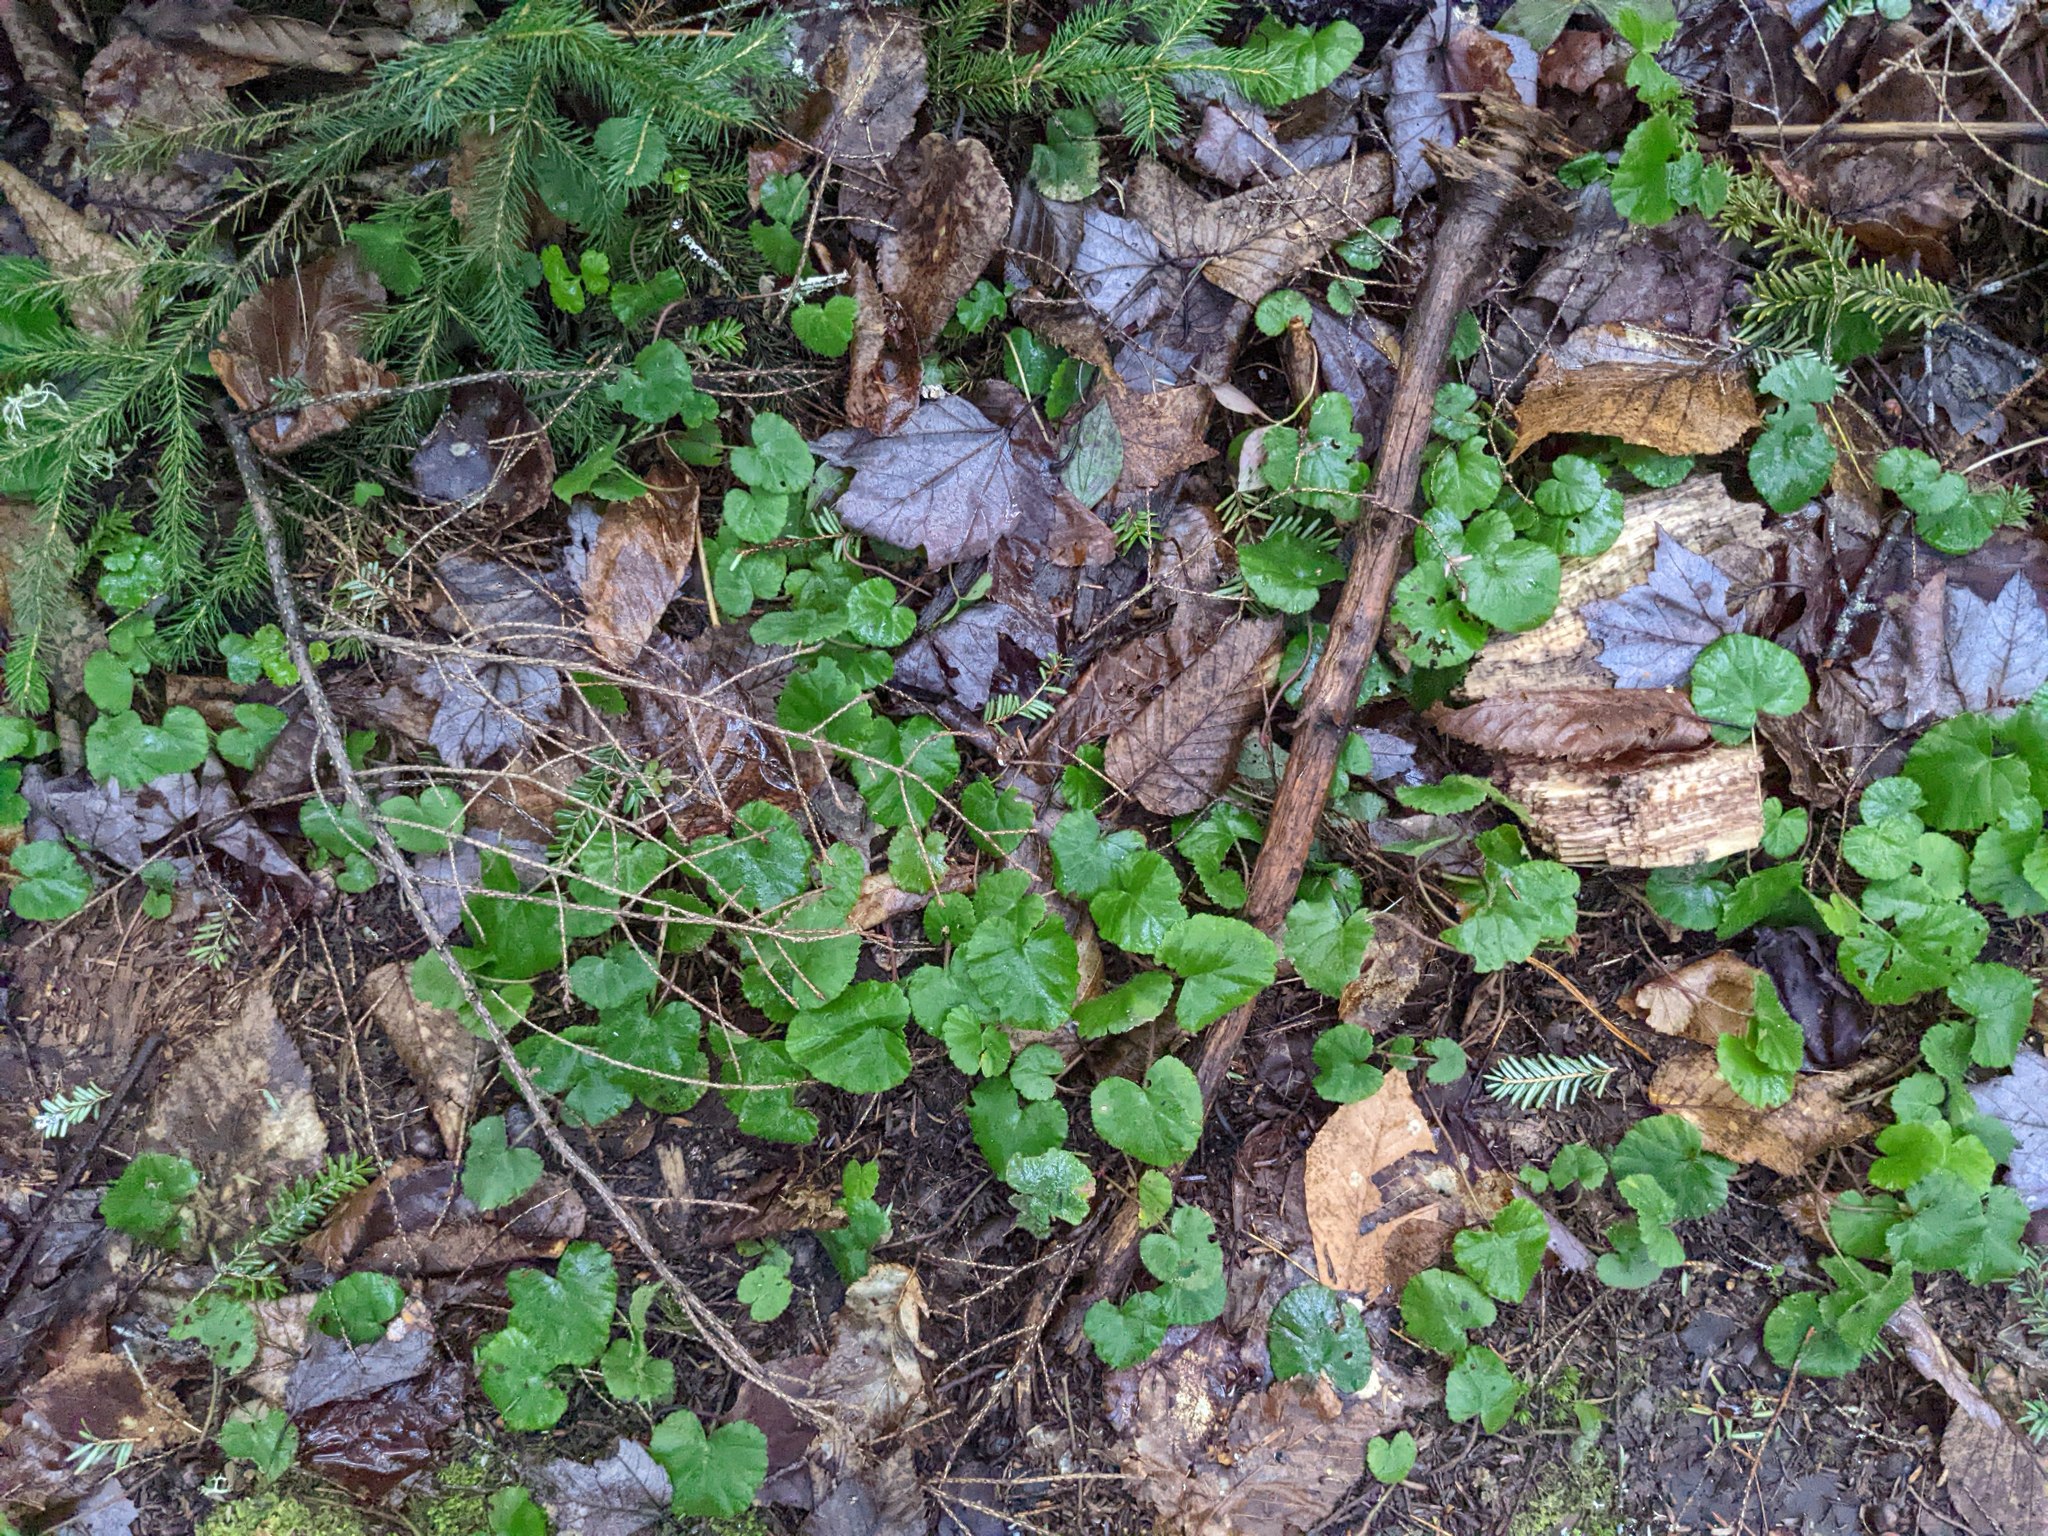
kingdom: Plantae
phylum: Tracheophyta
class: Magnoliopsida
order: Rosales
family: Rosaceae
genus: Dalibarda
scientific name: Dalibarda repens
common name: Dewdrop
